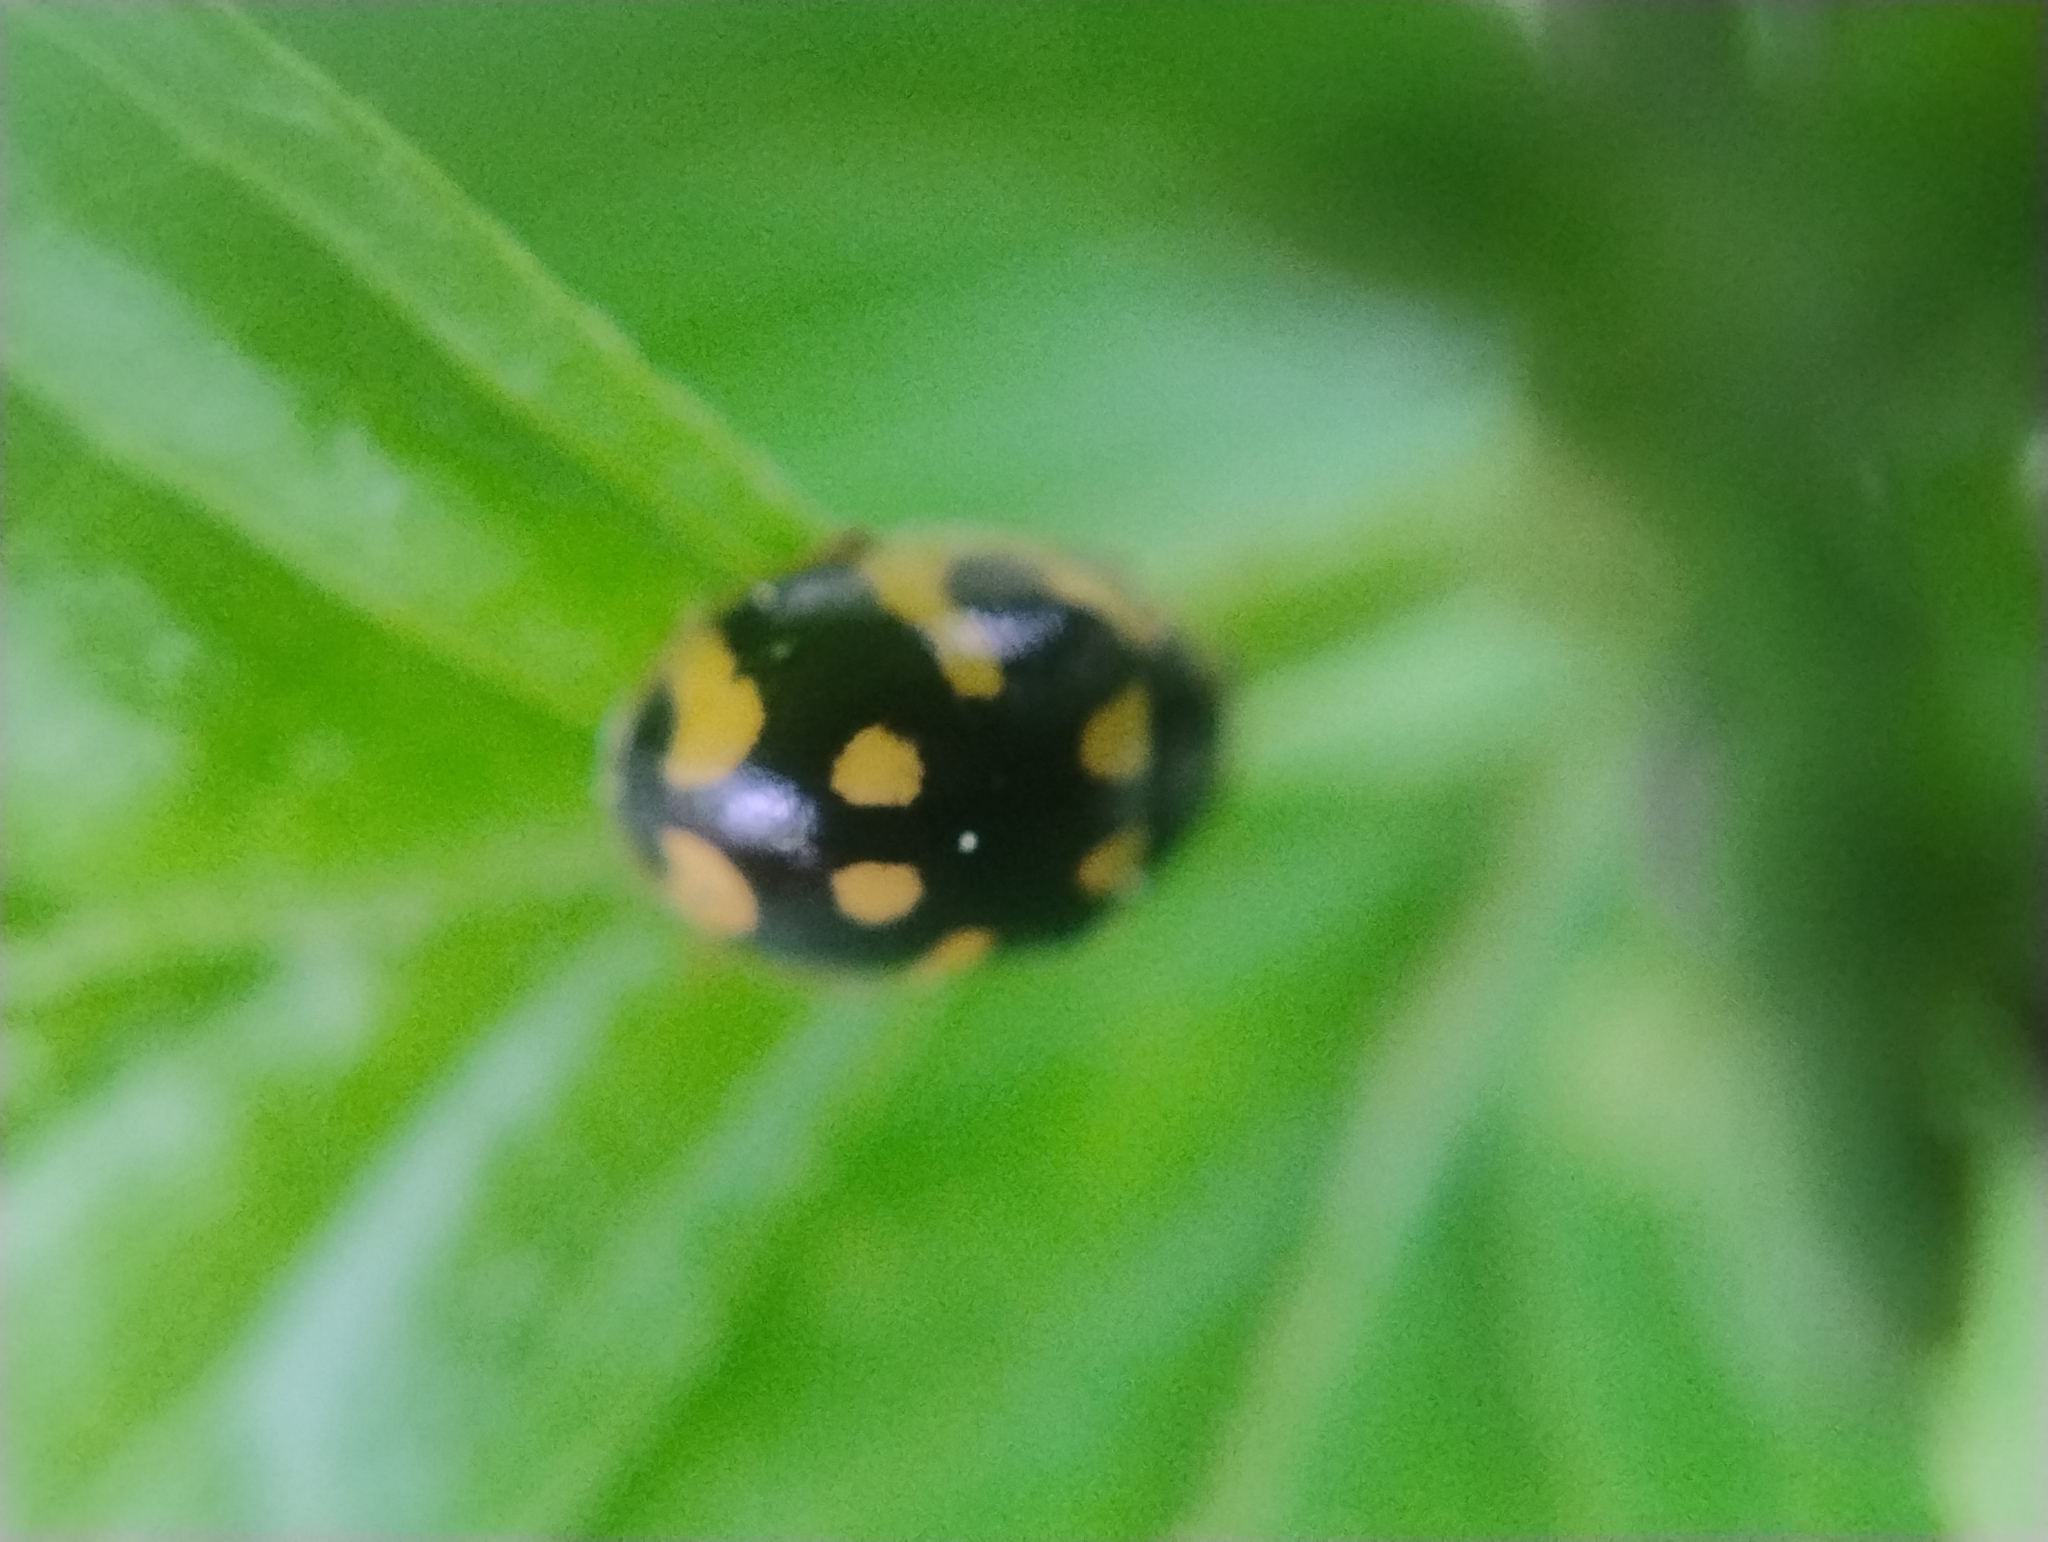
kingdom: Animalia
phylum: Arthropoda
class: Insecta
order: Coleoptera
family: Coccinellidae
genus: Propylaea
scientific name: Propylaea quatuordecimpunctata
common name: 14-spotted ladybird beetle
